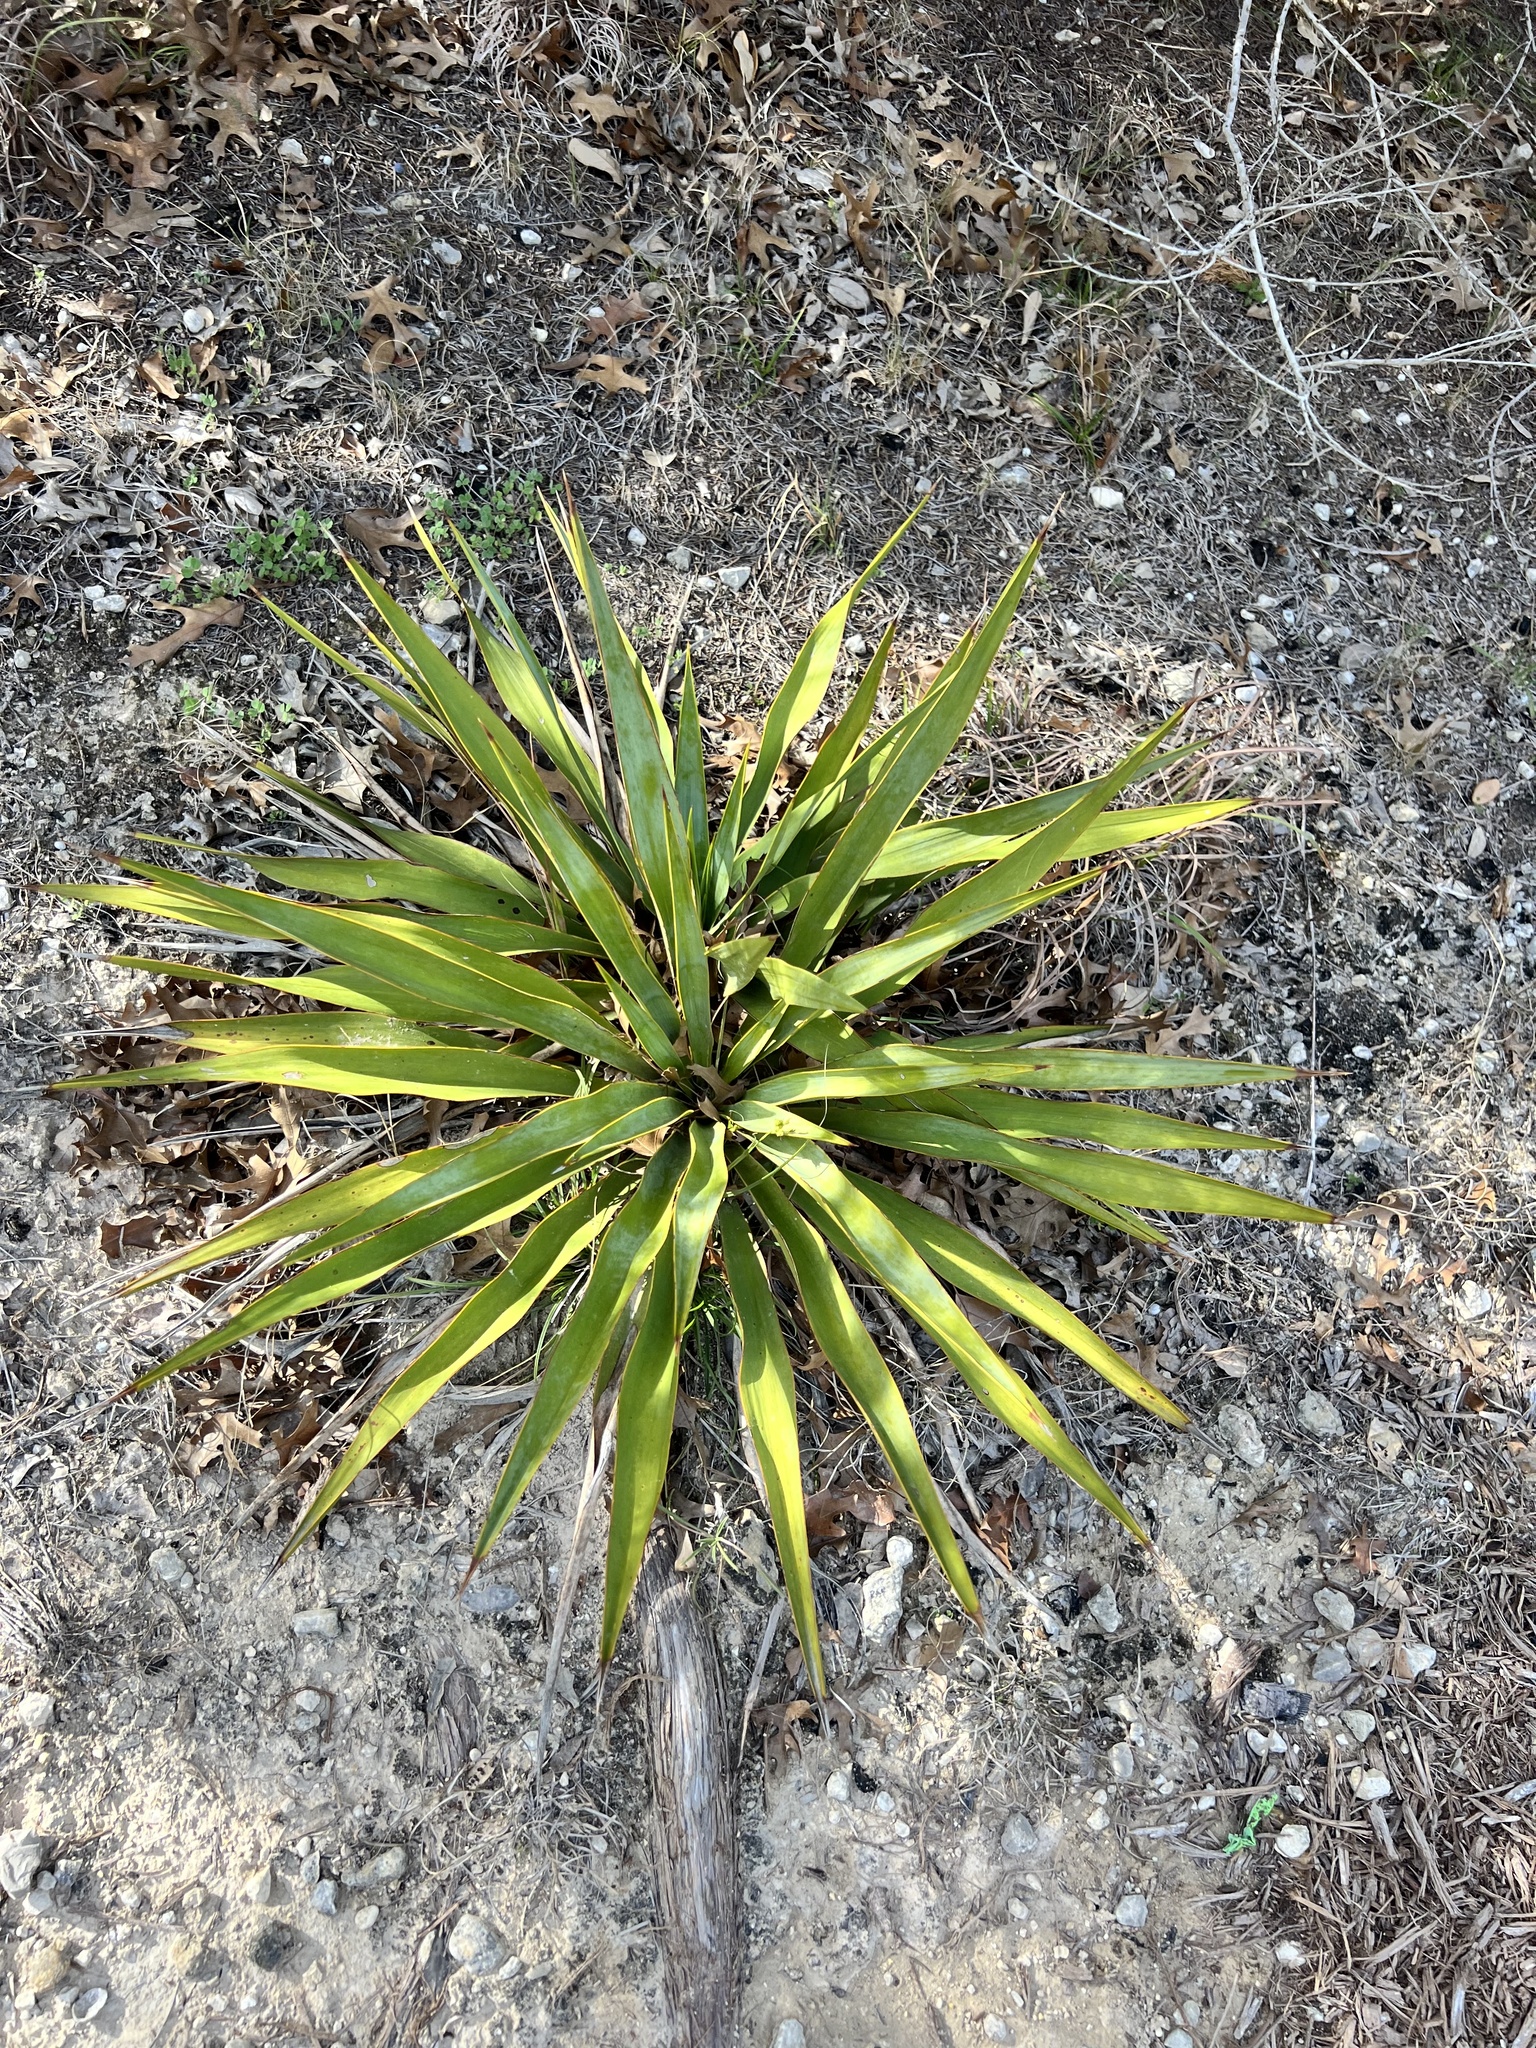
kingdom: Plantae
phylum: Tracheophyta
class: Liliopsida
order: Asparagales
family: Asparagaceae
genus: Yucca
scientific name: Yucca rupicola
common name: Twisted-leaf spanish-dagger
